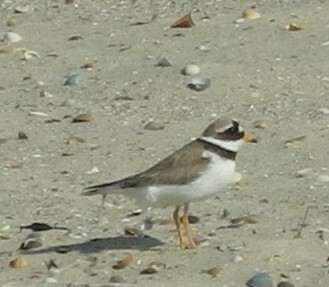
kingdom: Animalia
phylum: Chordata
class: Aves
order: Charadriiformes
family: Charadriidae
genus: Charadrius
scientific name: Charadrius hiaticula
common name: Common ringed plover
